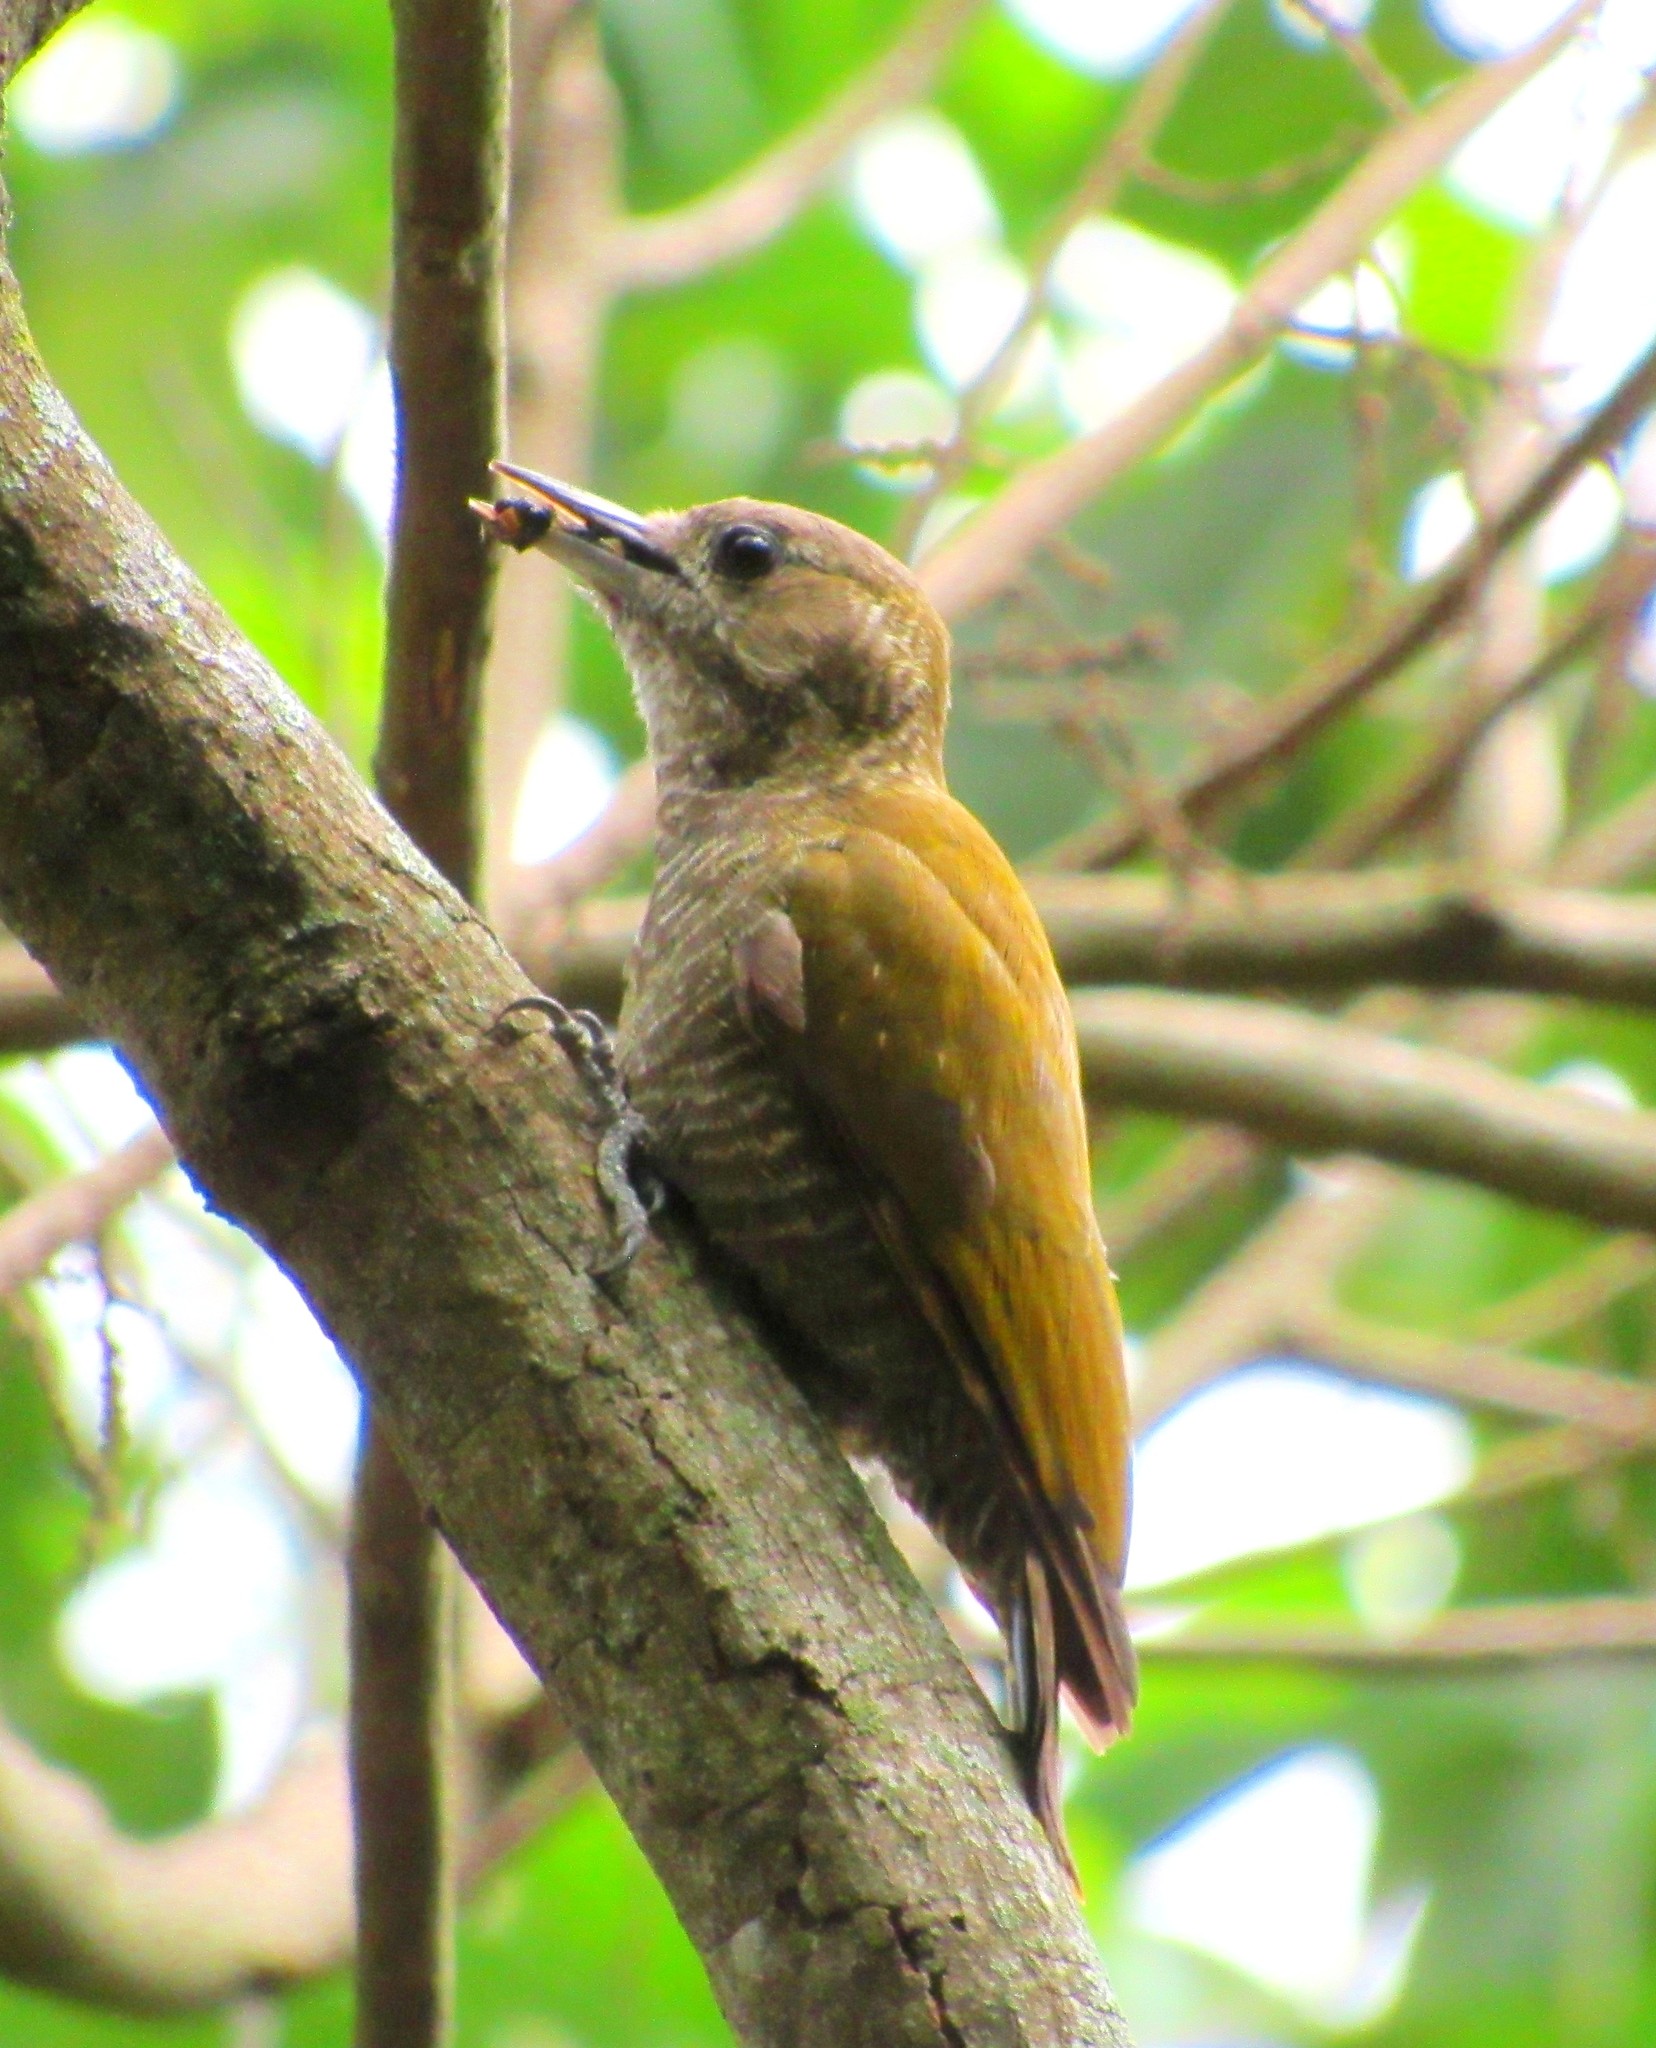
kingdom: Animalia
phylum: Chordata
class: Aves
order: Piciformes
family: Picidae
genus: Veniliornis
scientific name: Veniliornis passerinus
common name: Little woodpecker
